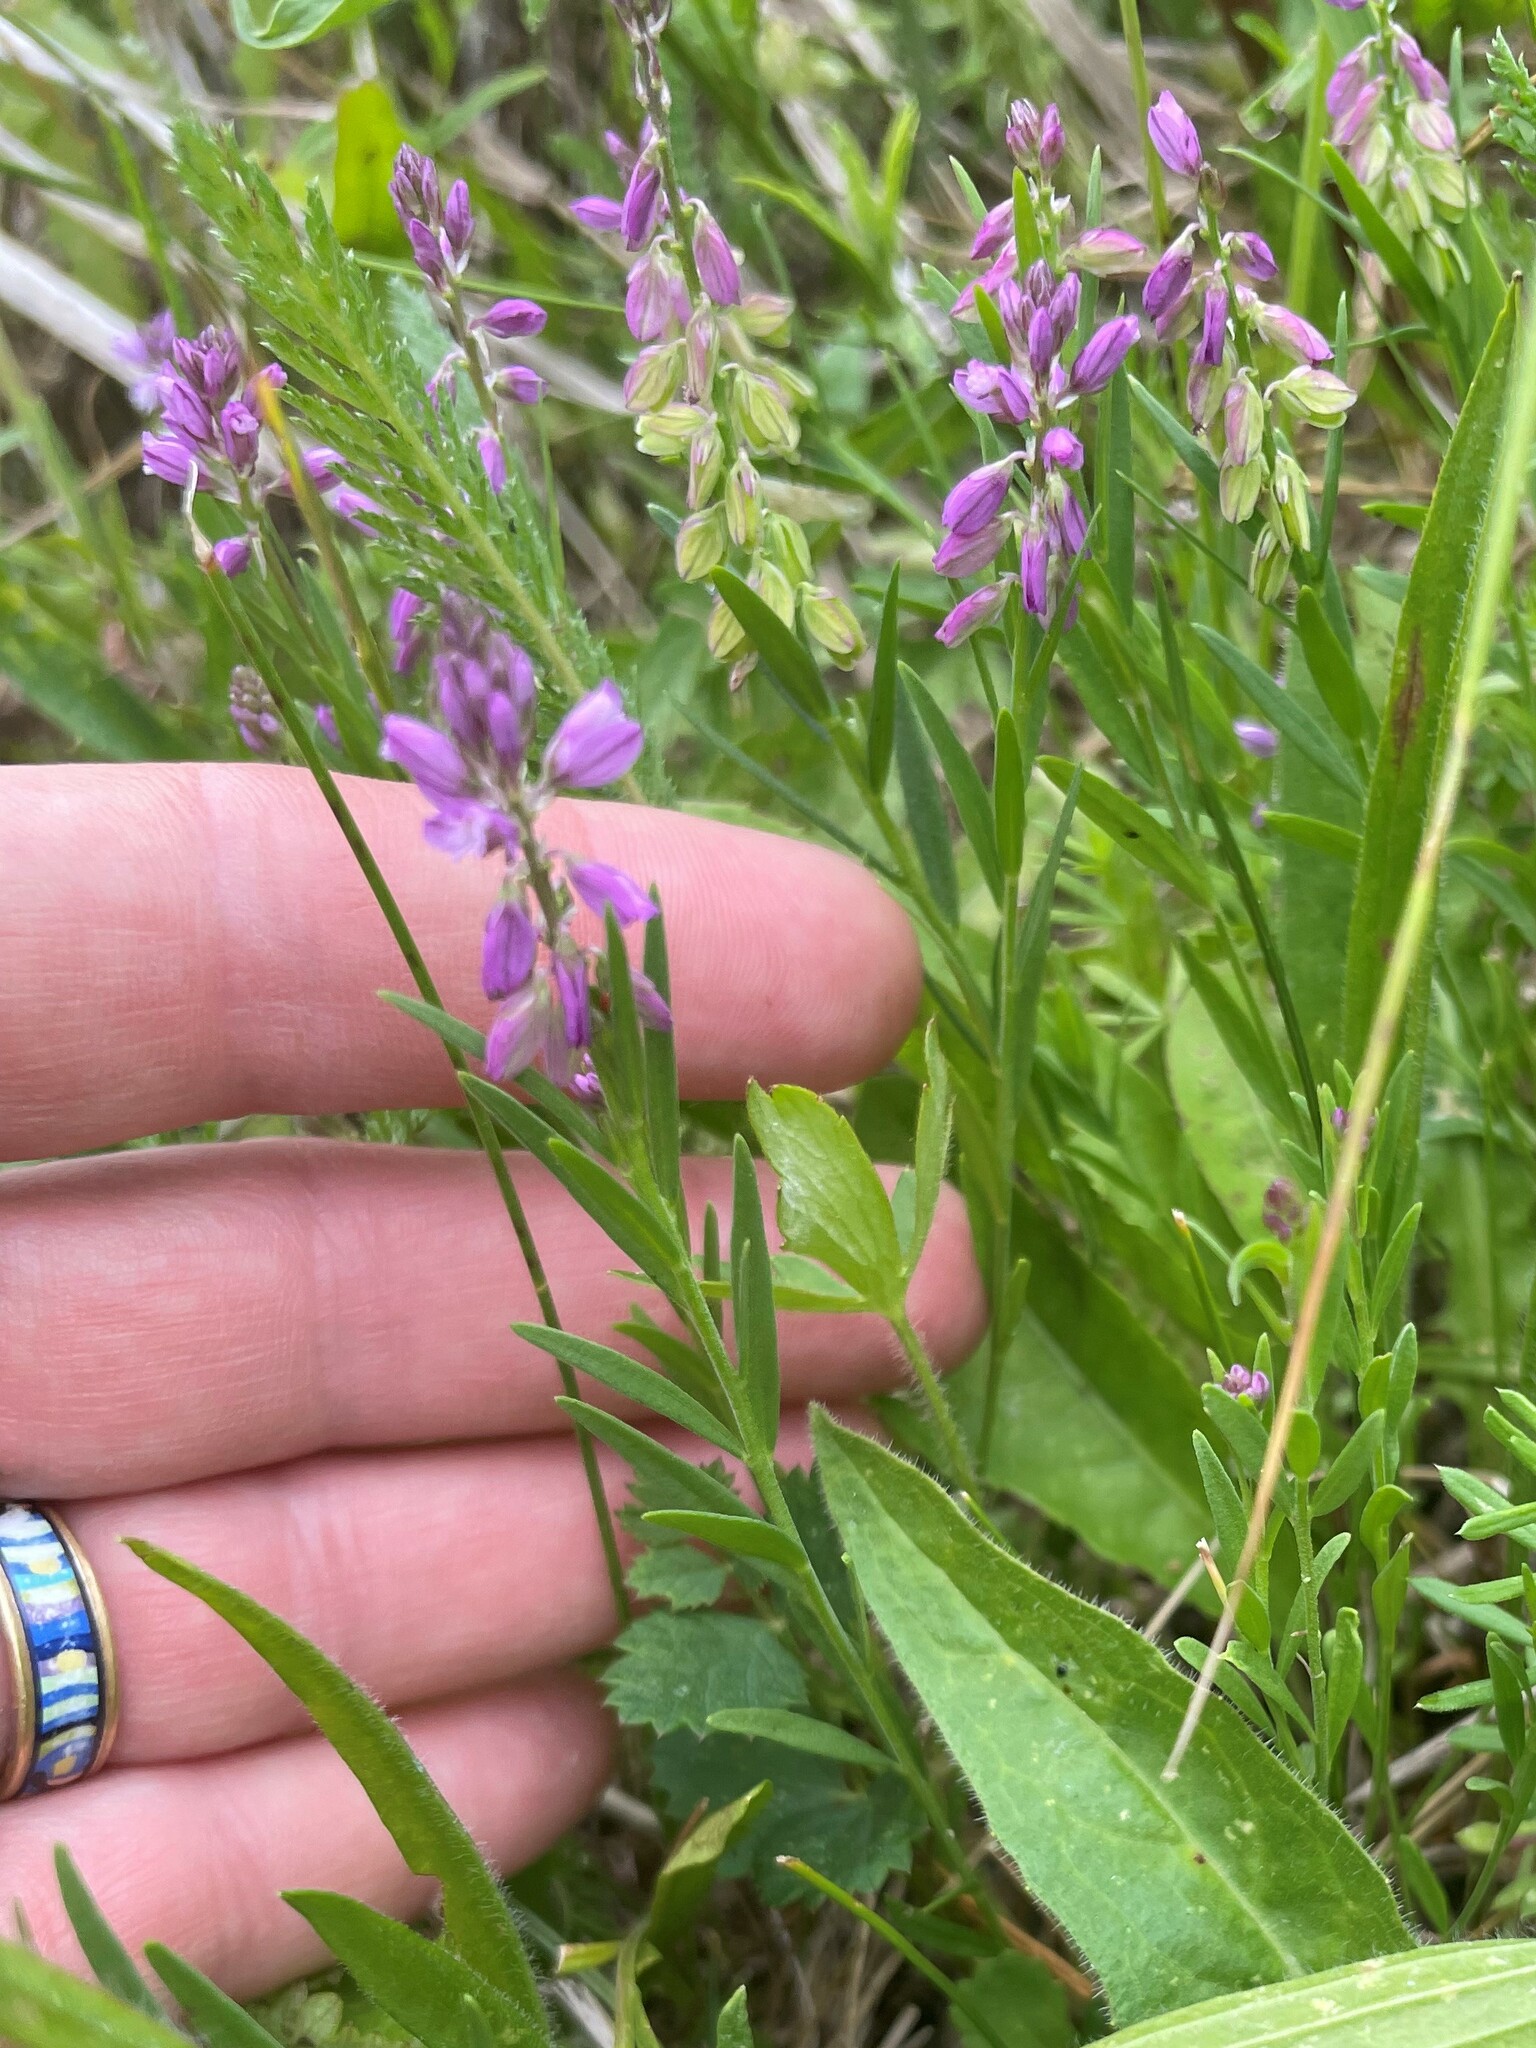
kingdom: Plantae
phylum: Tracheophyta
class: Magnoliopsida
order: Fabales
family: Polygalaceae
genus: Polygala
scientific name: Polygala comosa
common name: Tufted milkwort
